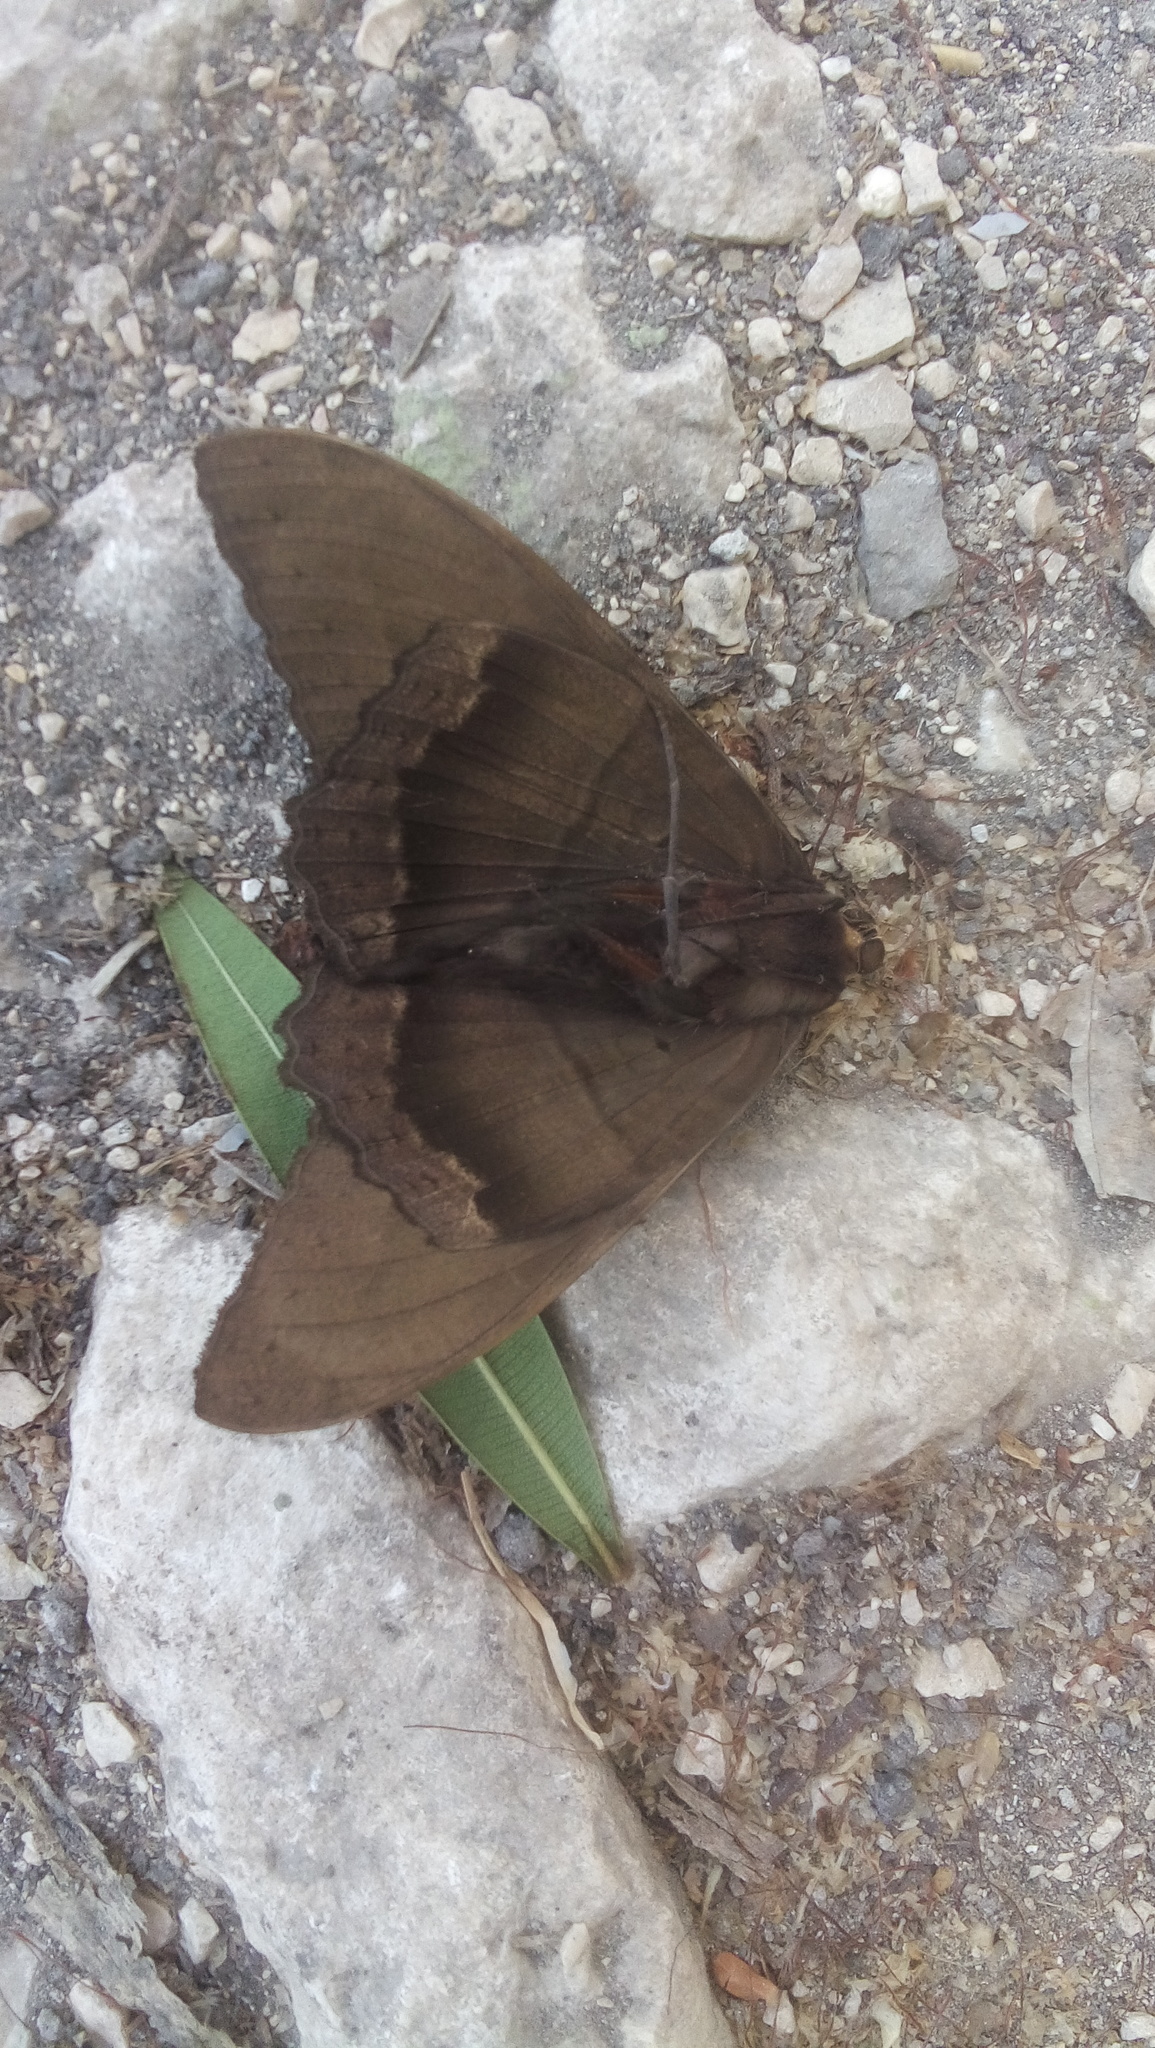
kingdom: Animalia
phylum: Arthropoda
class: Insecta
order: Lepidoptera
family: Erebidae
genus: Ascalapha
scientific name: Ascalapha odorata
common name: Black witch
